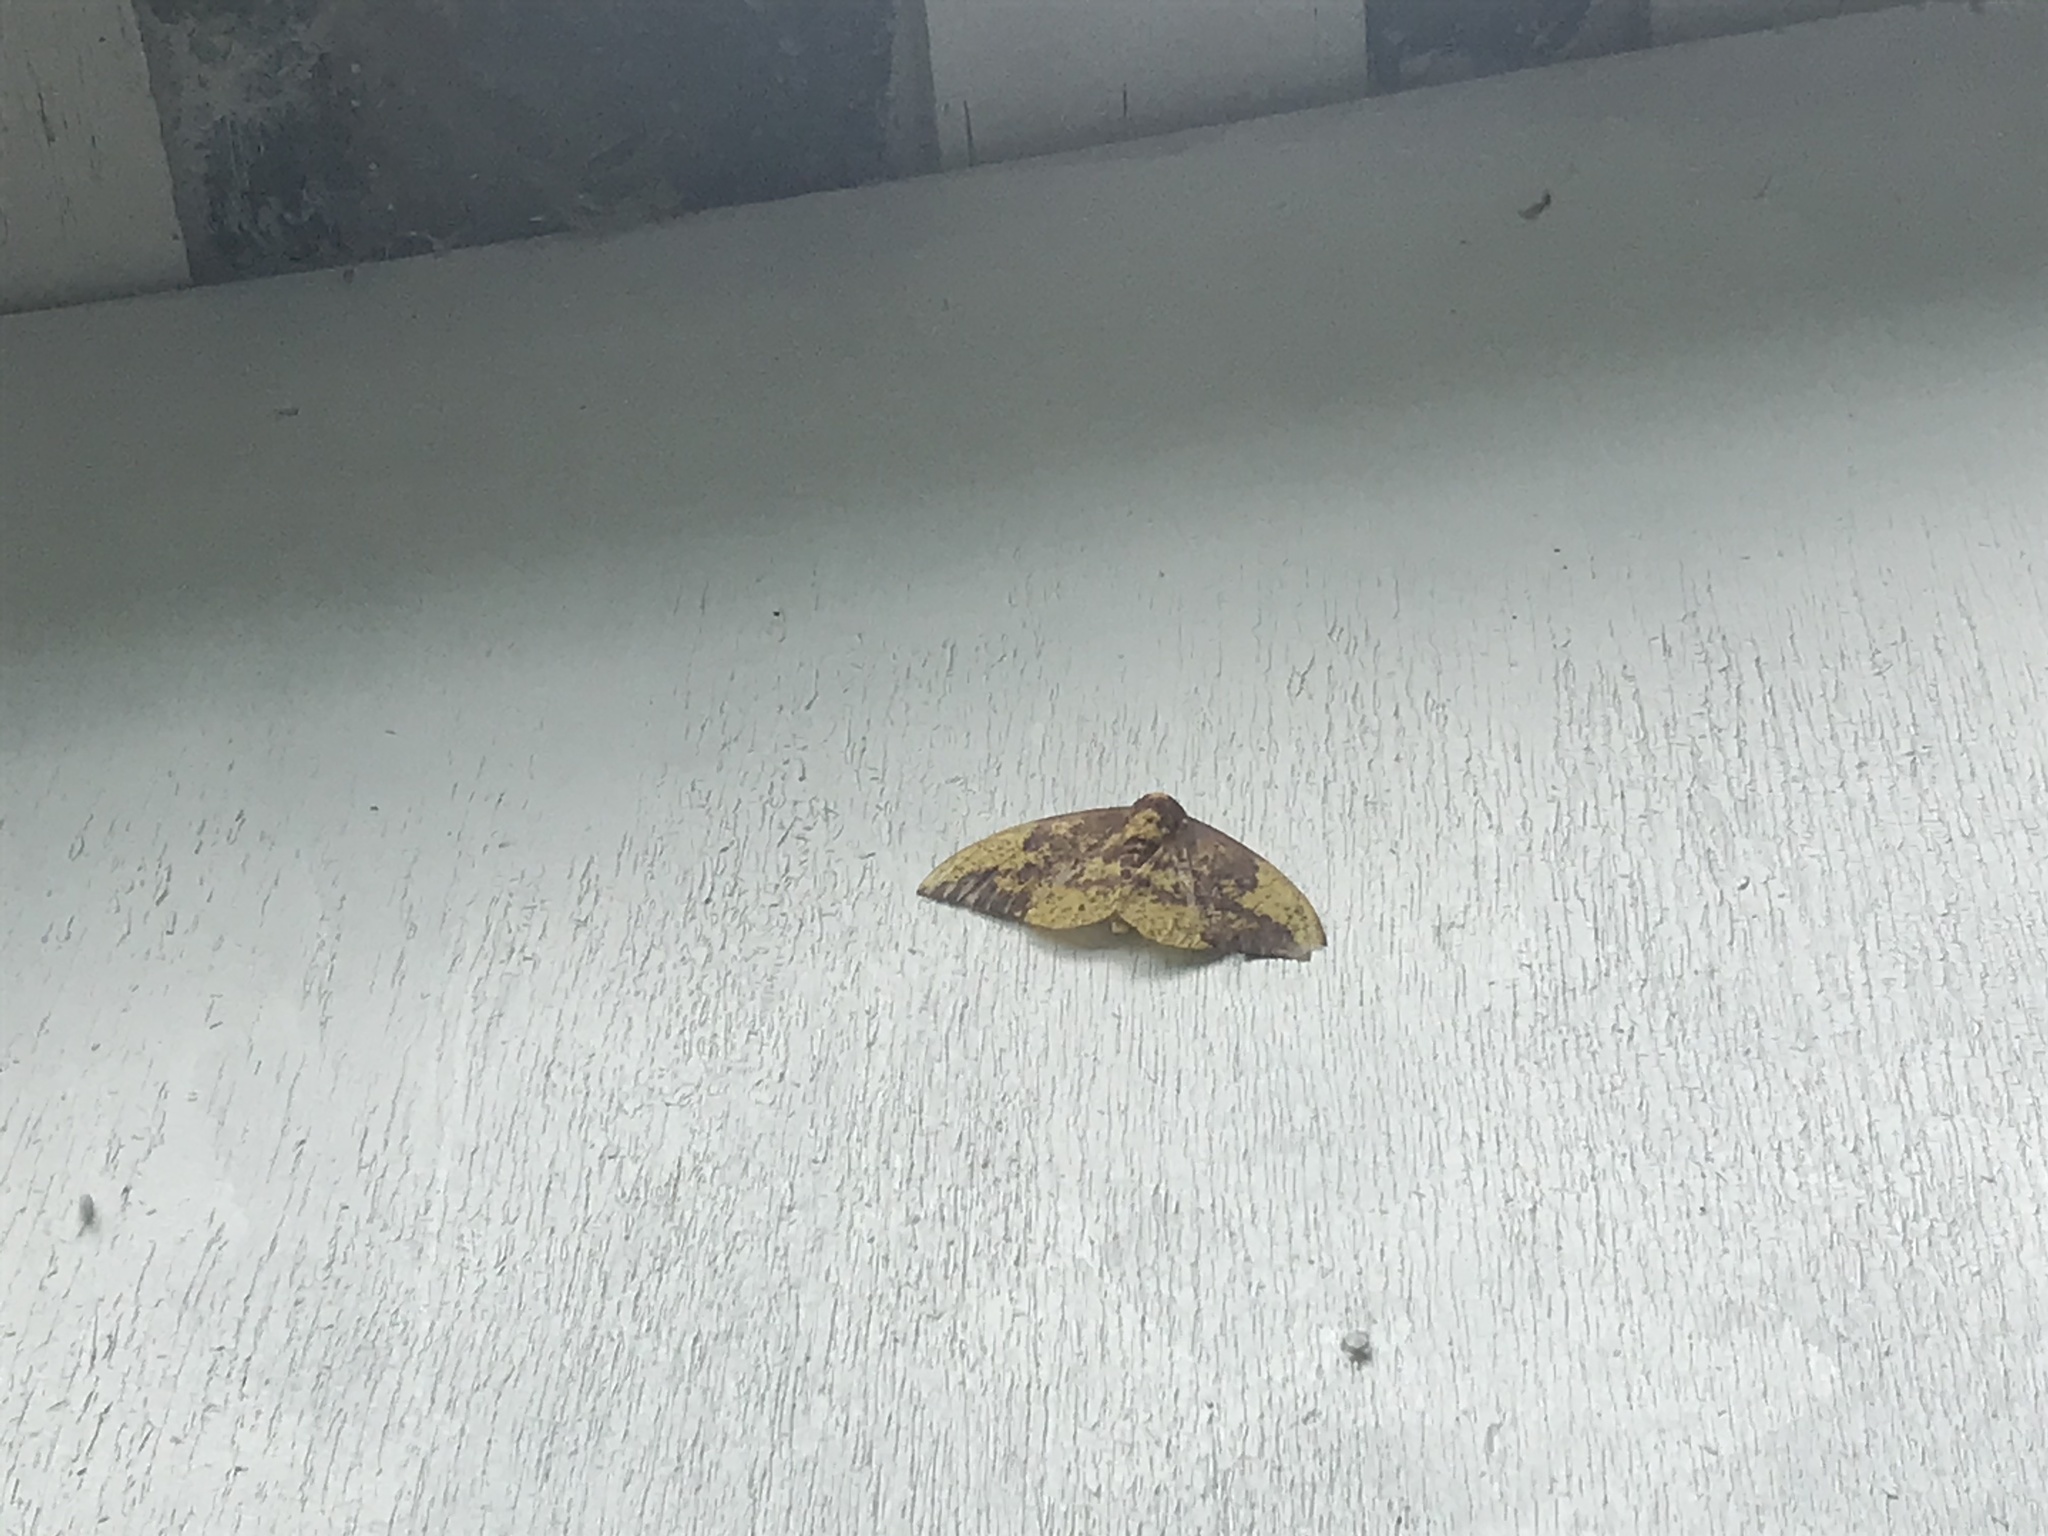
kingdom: Animalia
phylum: Arthropoda
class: Insecta
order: Lepidoptera
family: Saturniidae
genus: Eacles
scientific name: Eacles imperialis
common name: Imperial moth
